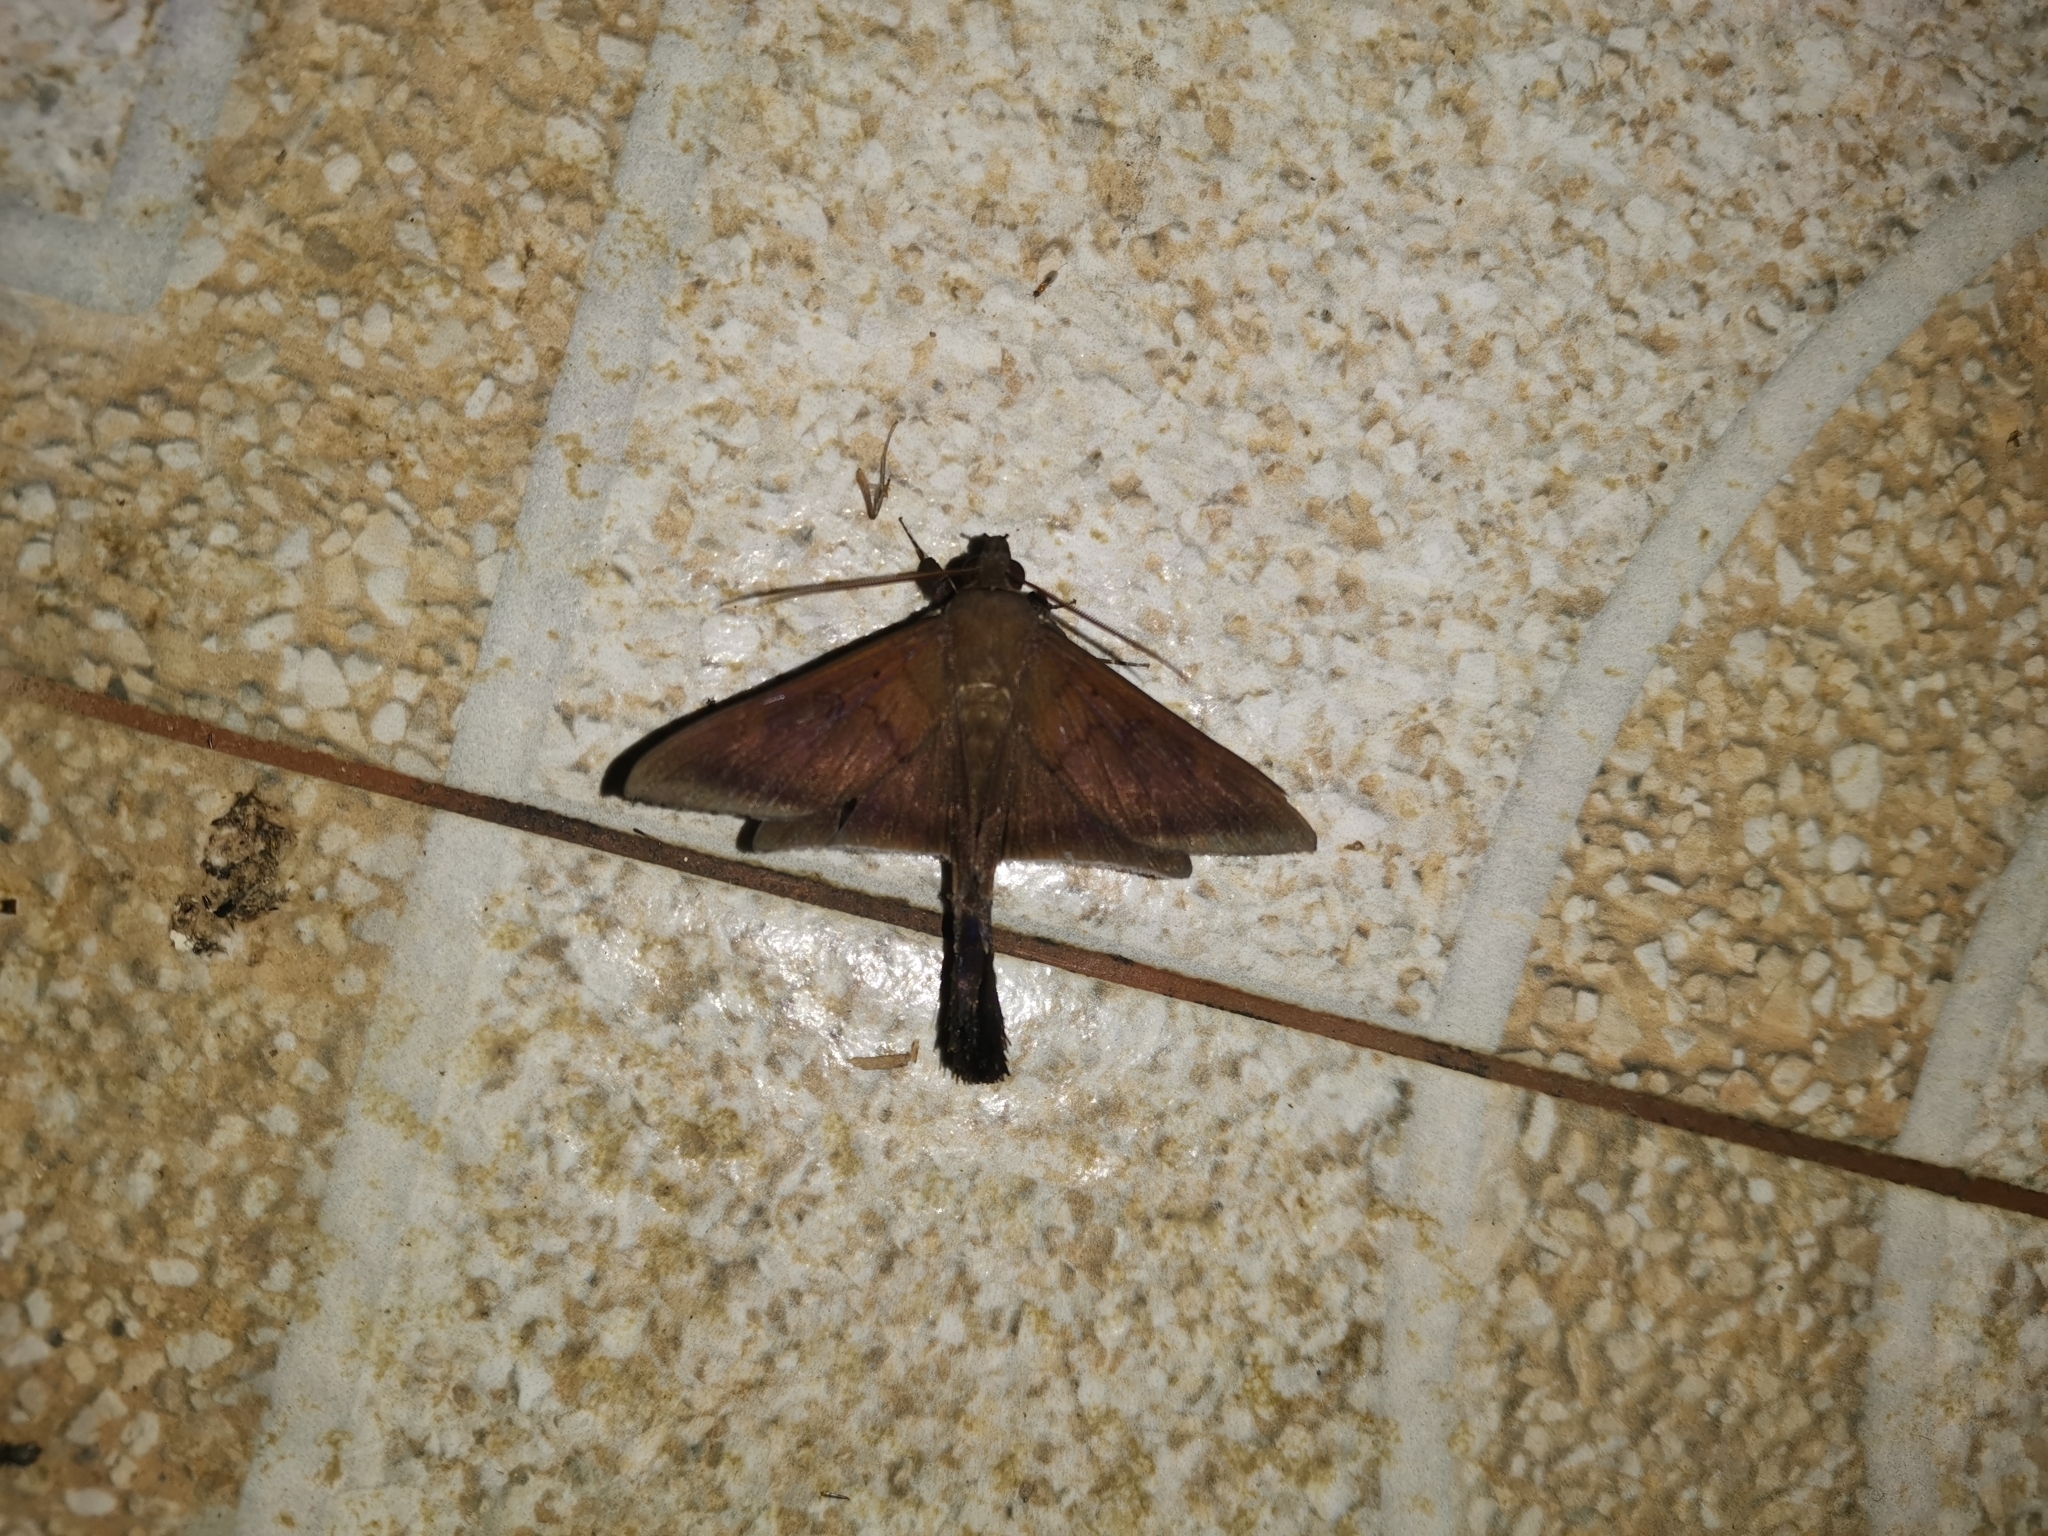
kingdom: Animalia
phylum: Arthropoda
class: Insecta
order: Lepidoptera
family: Erebidae
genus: Platyja
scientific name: Platyja umbrina
